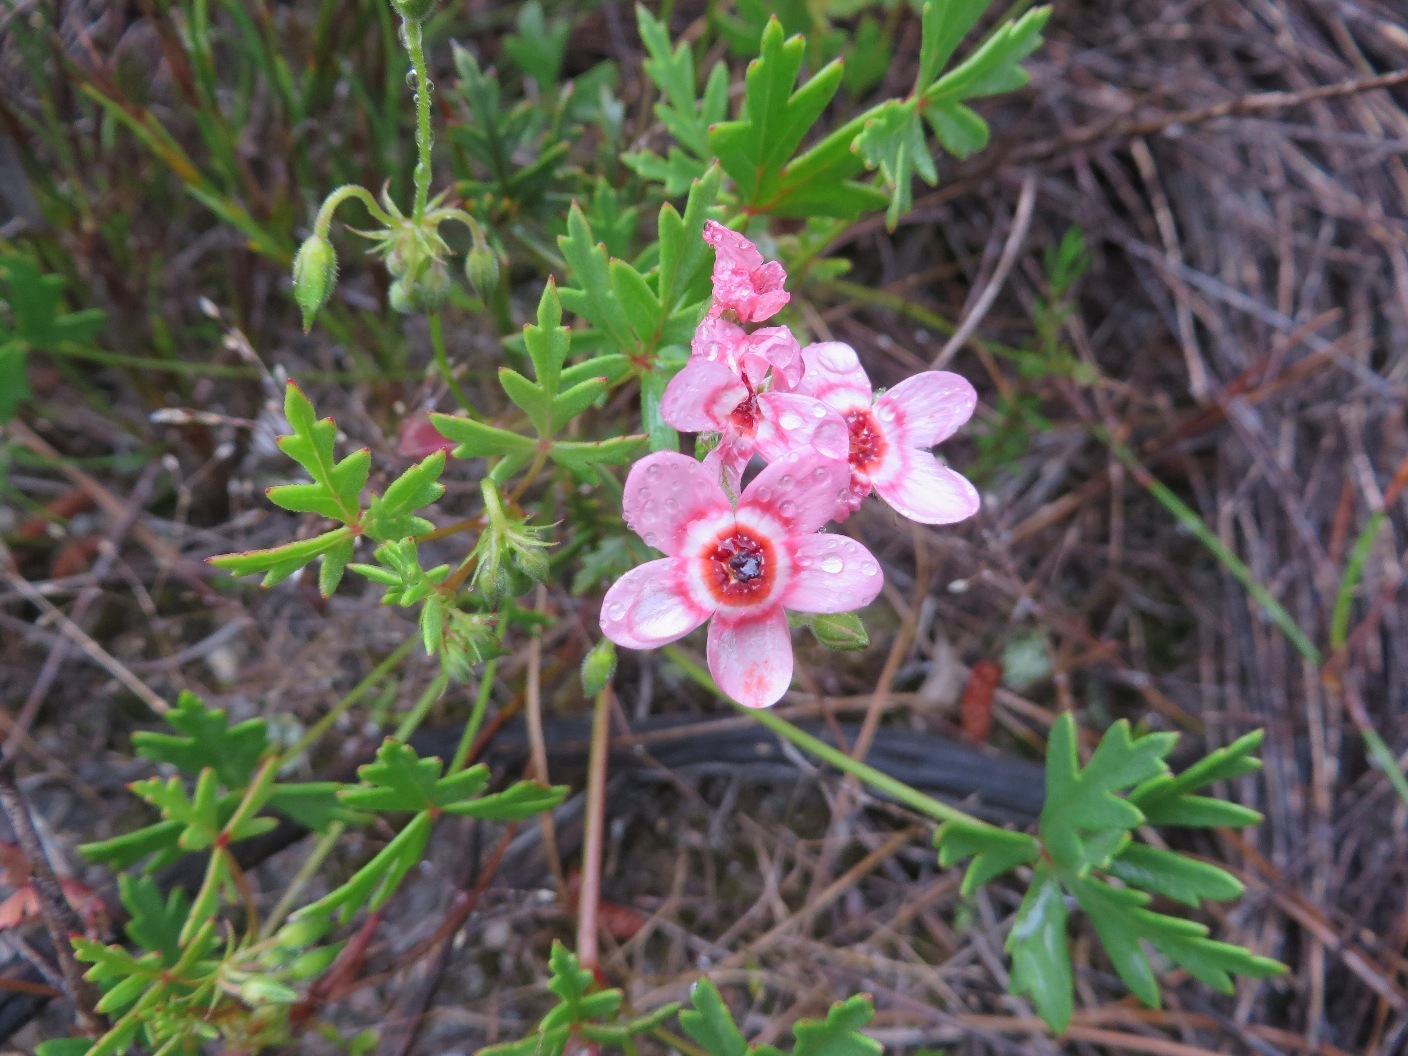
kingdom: Plantae
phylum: Tracheophyta
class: Magnoliopsida
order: Geraniales
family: Geraniaceae
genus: Pelargonium
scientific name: Pelargonium incarnatum
